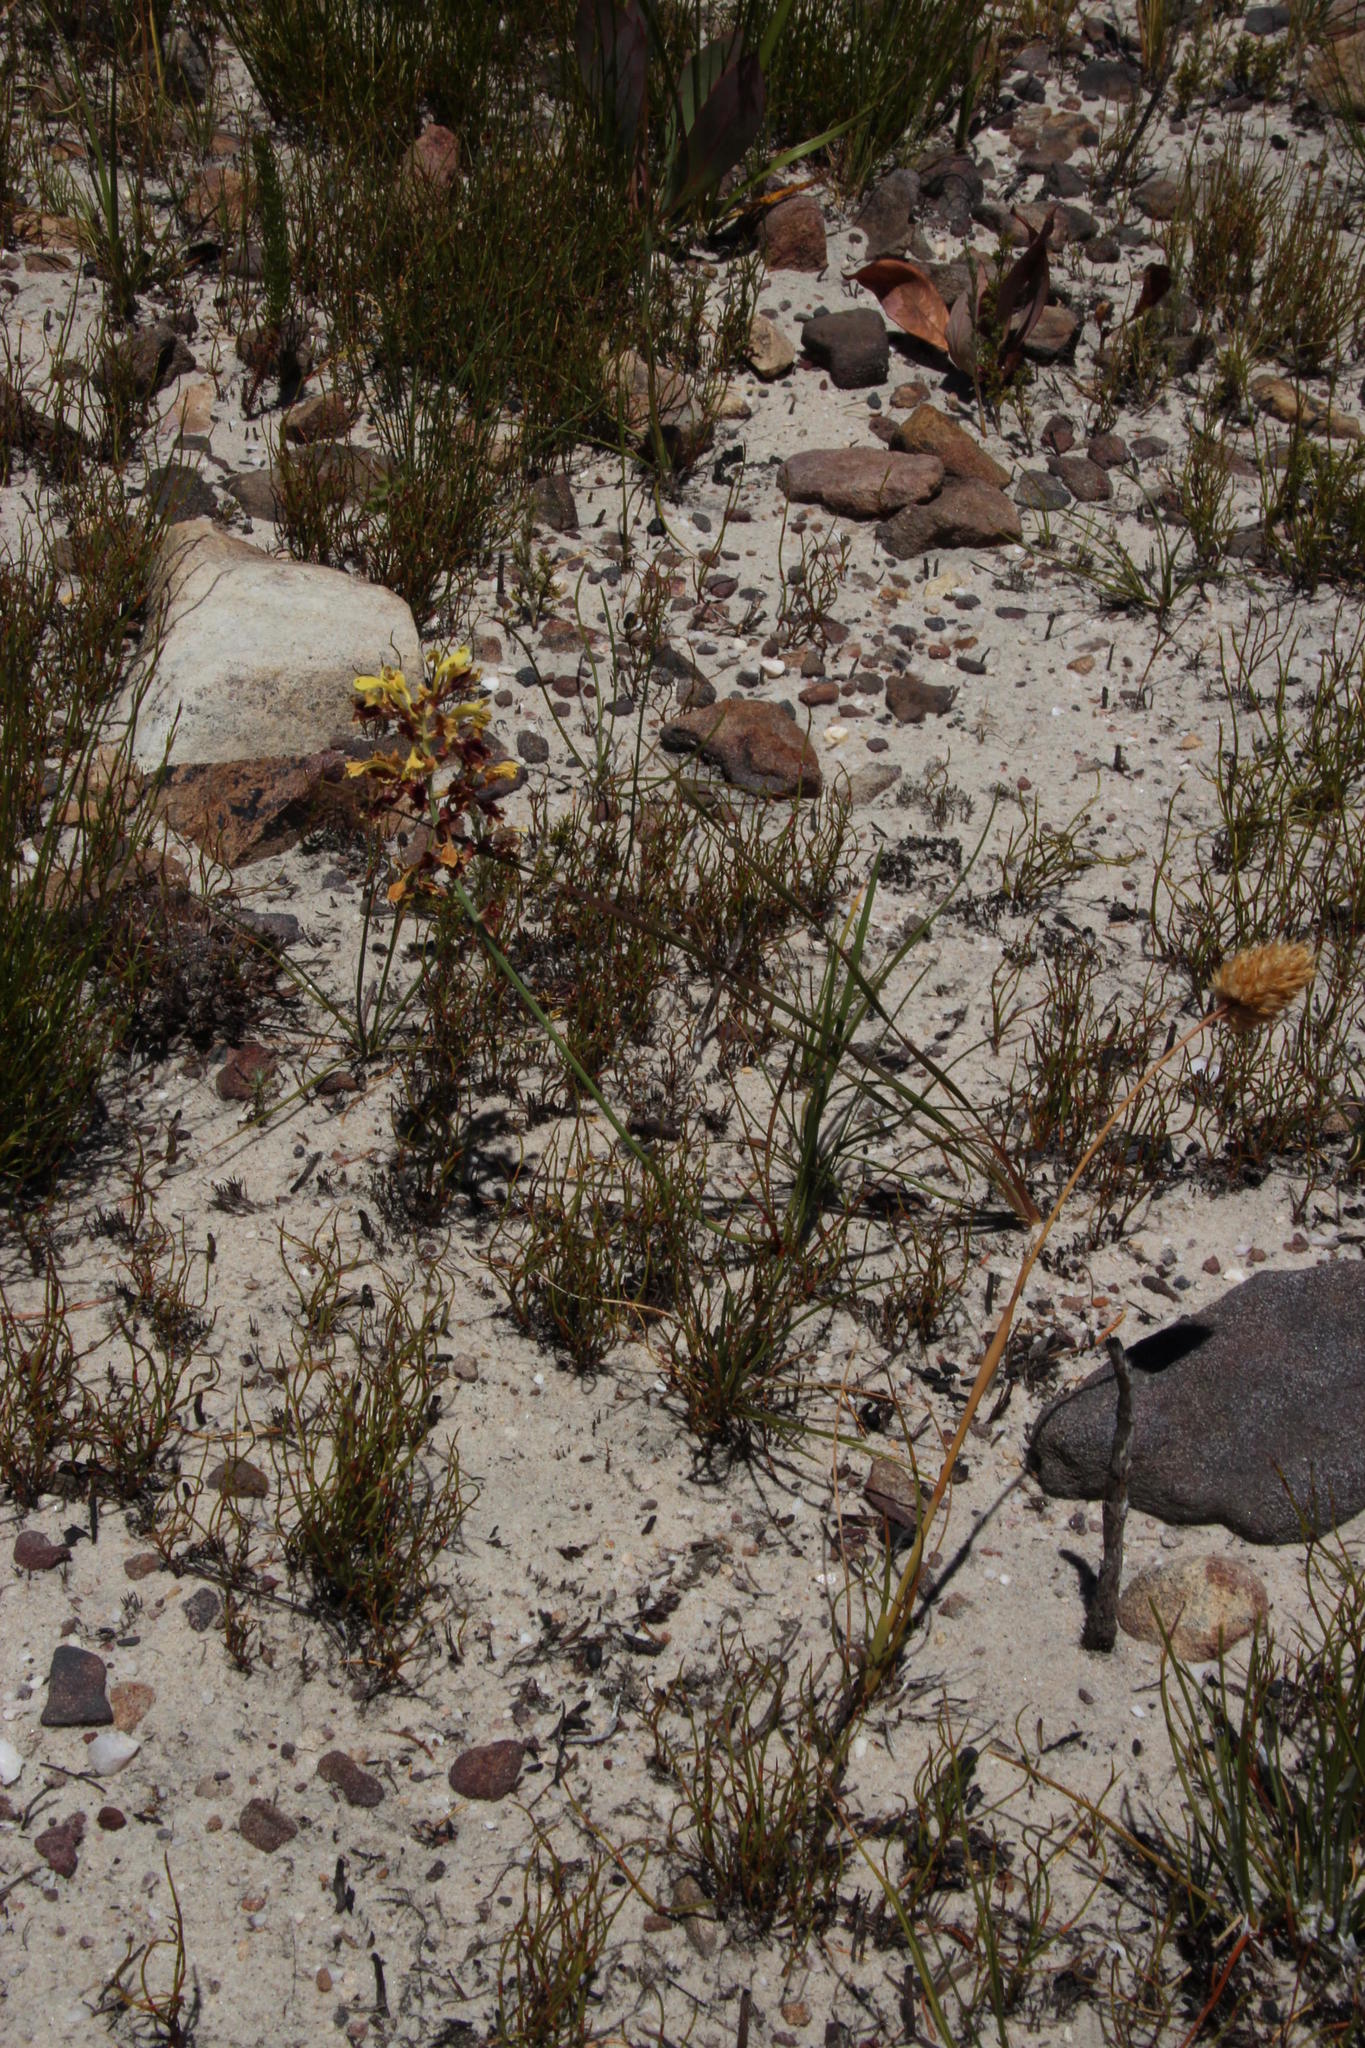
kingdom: Plantae
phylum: Tracheophyta
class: Liliopsida
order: Asparagales
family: Iridaceae
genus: Tritoniopsis
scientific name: Tritoniopsis parviflora
